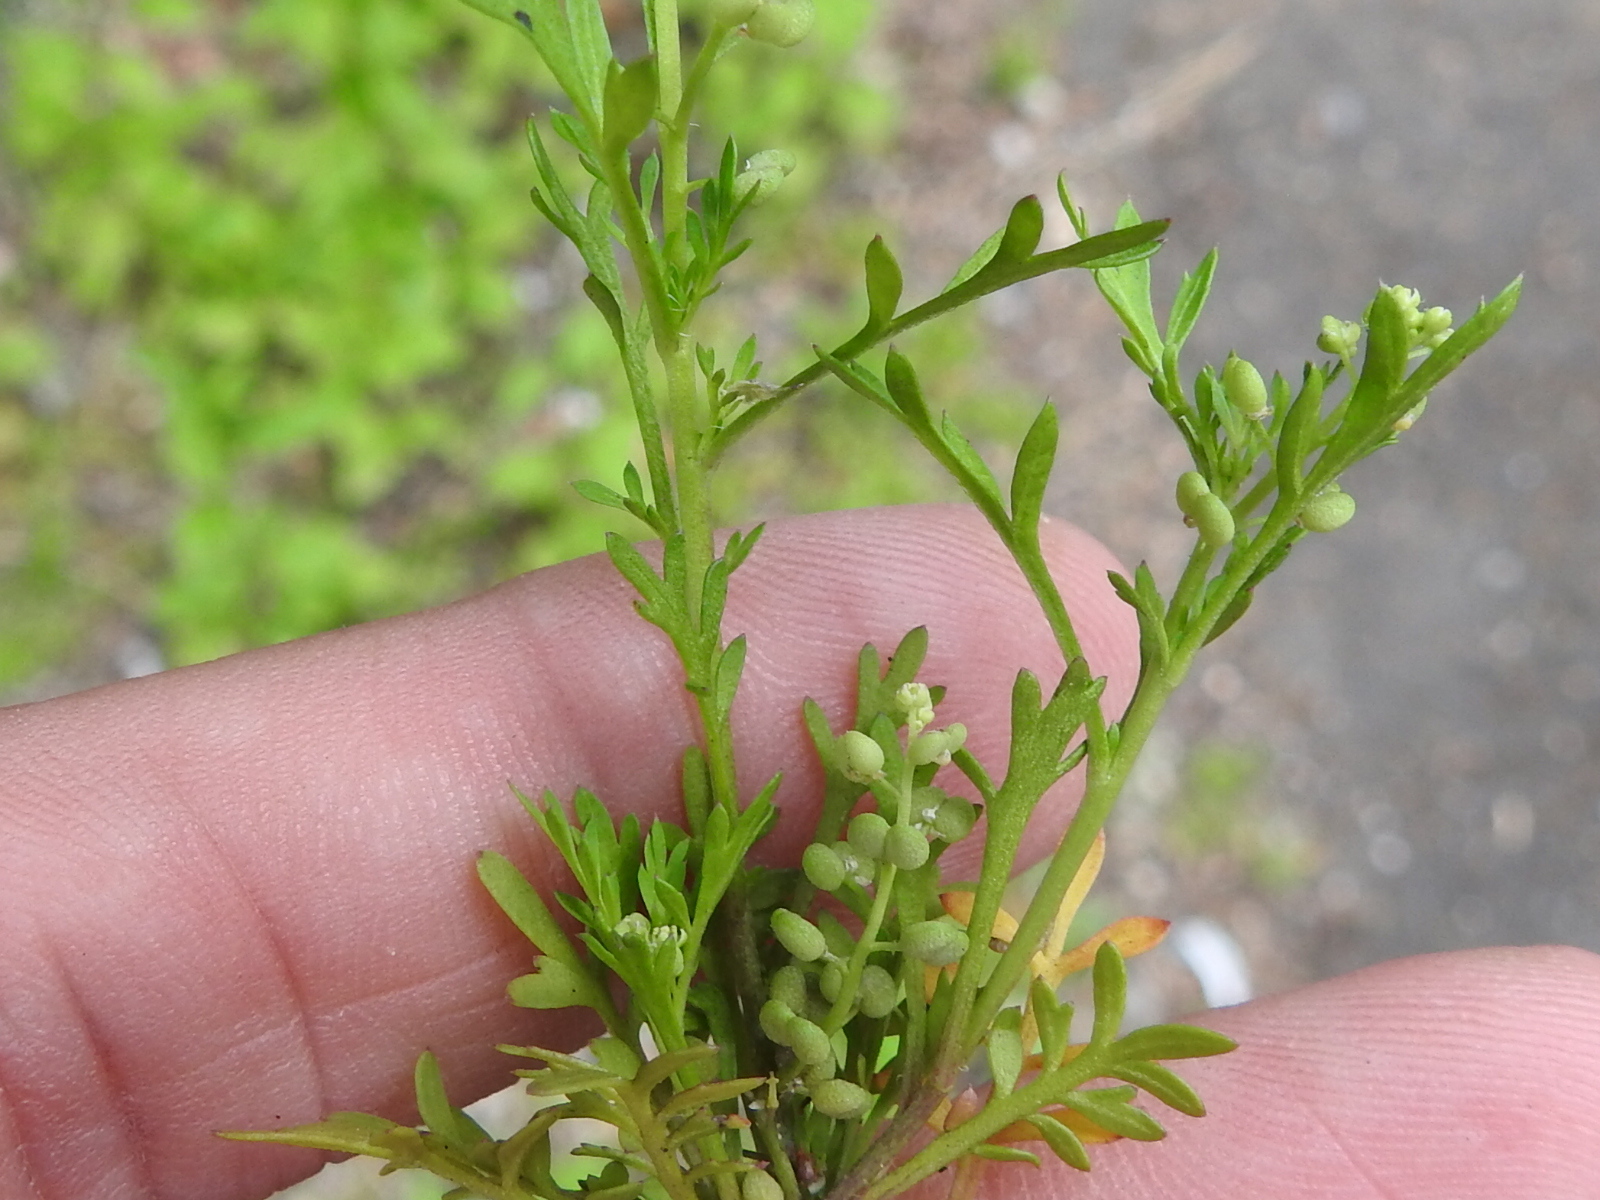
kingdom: Plantae
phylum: Tracheophyta
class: Magnoliopsida
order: Brassicales
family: Brassicaceae
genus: Lepidium
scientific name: Lepidium didymum
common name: Lesser swinecress
